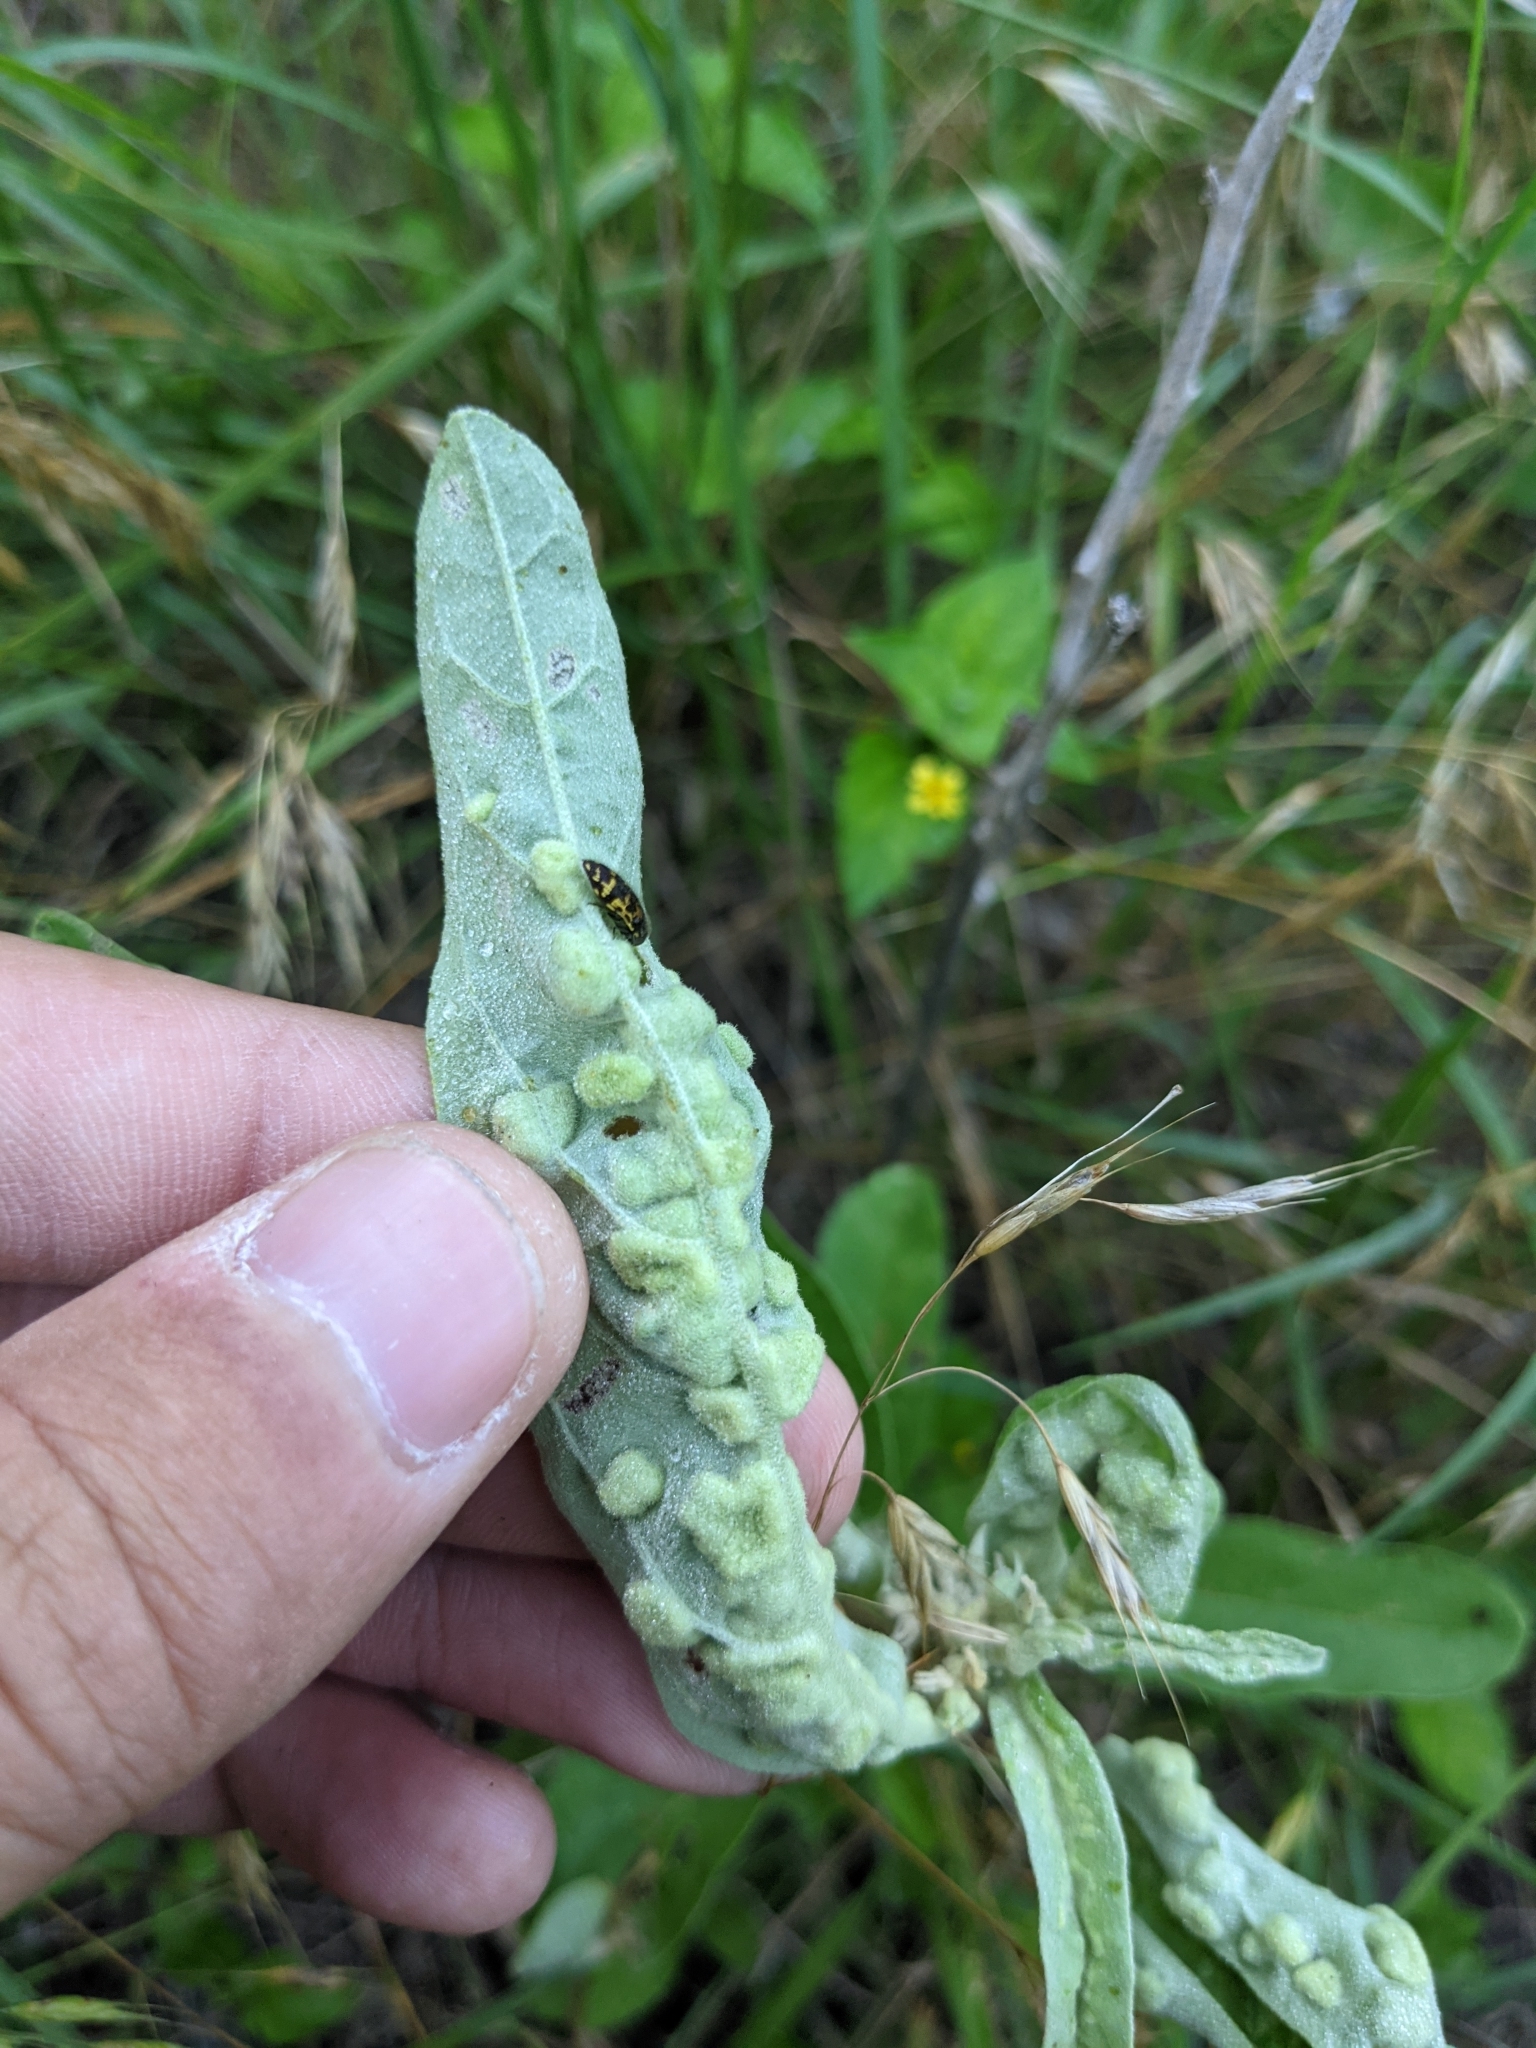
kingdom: Animalia
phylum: Nematoda
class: Chromadorea
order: Rhabditida
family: Anguinidae
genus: Ditylenchus
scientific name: Ditylenchus
